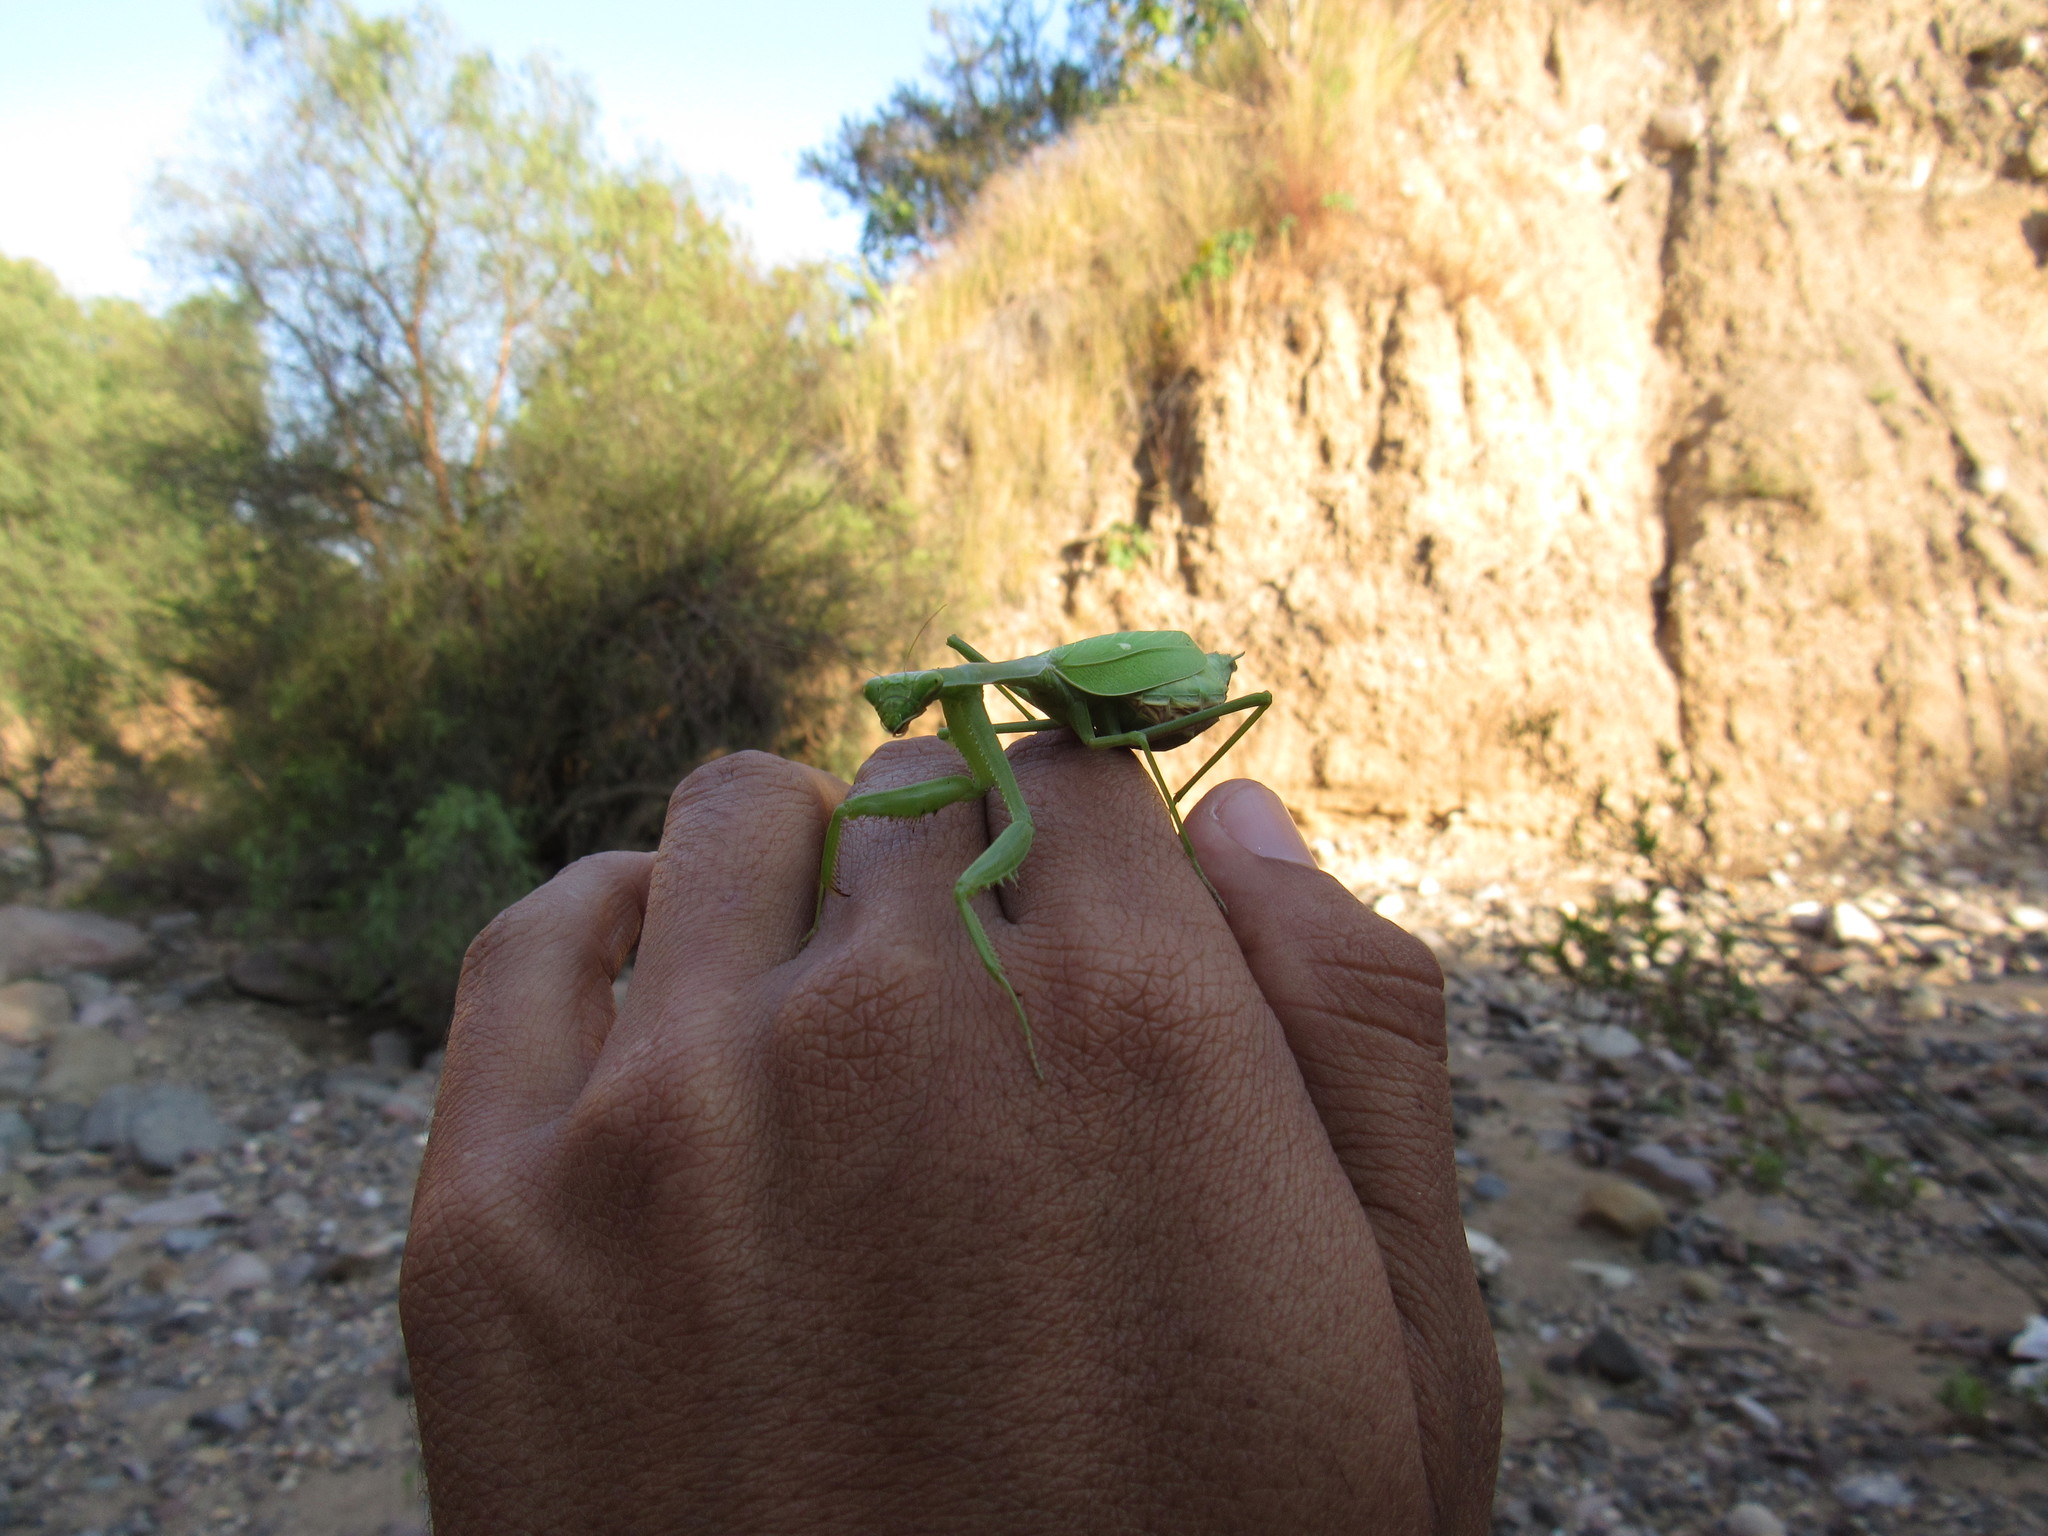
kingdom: Animalia
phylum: Arthropoda
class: Insecta
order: Mantodea
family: Mantidae
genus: Stagmomantis
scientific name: Stagmomantis limbata
